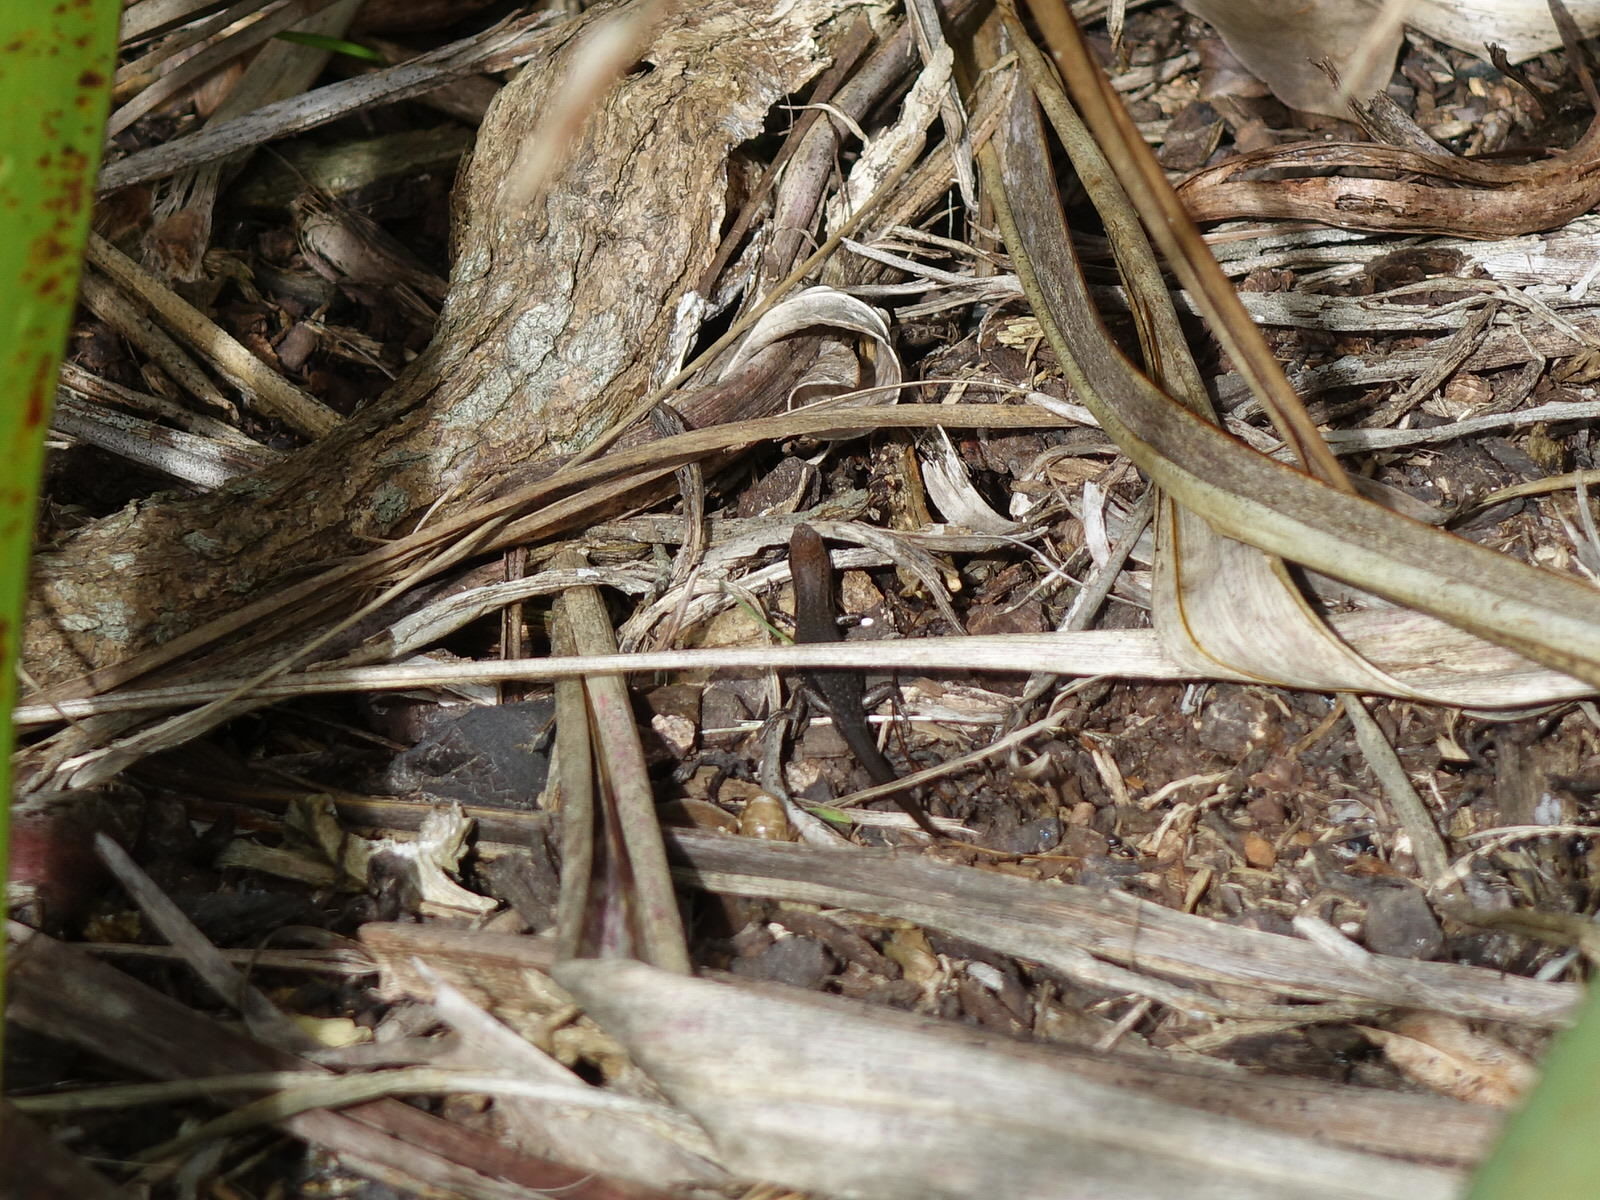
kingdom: Animalia
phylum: Chordata
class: Squamata
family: Scincidae
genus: Lampropholis
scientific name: Lampropholis delicata
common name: Plague skink
